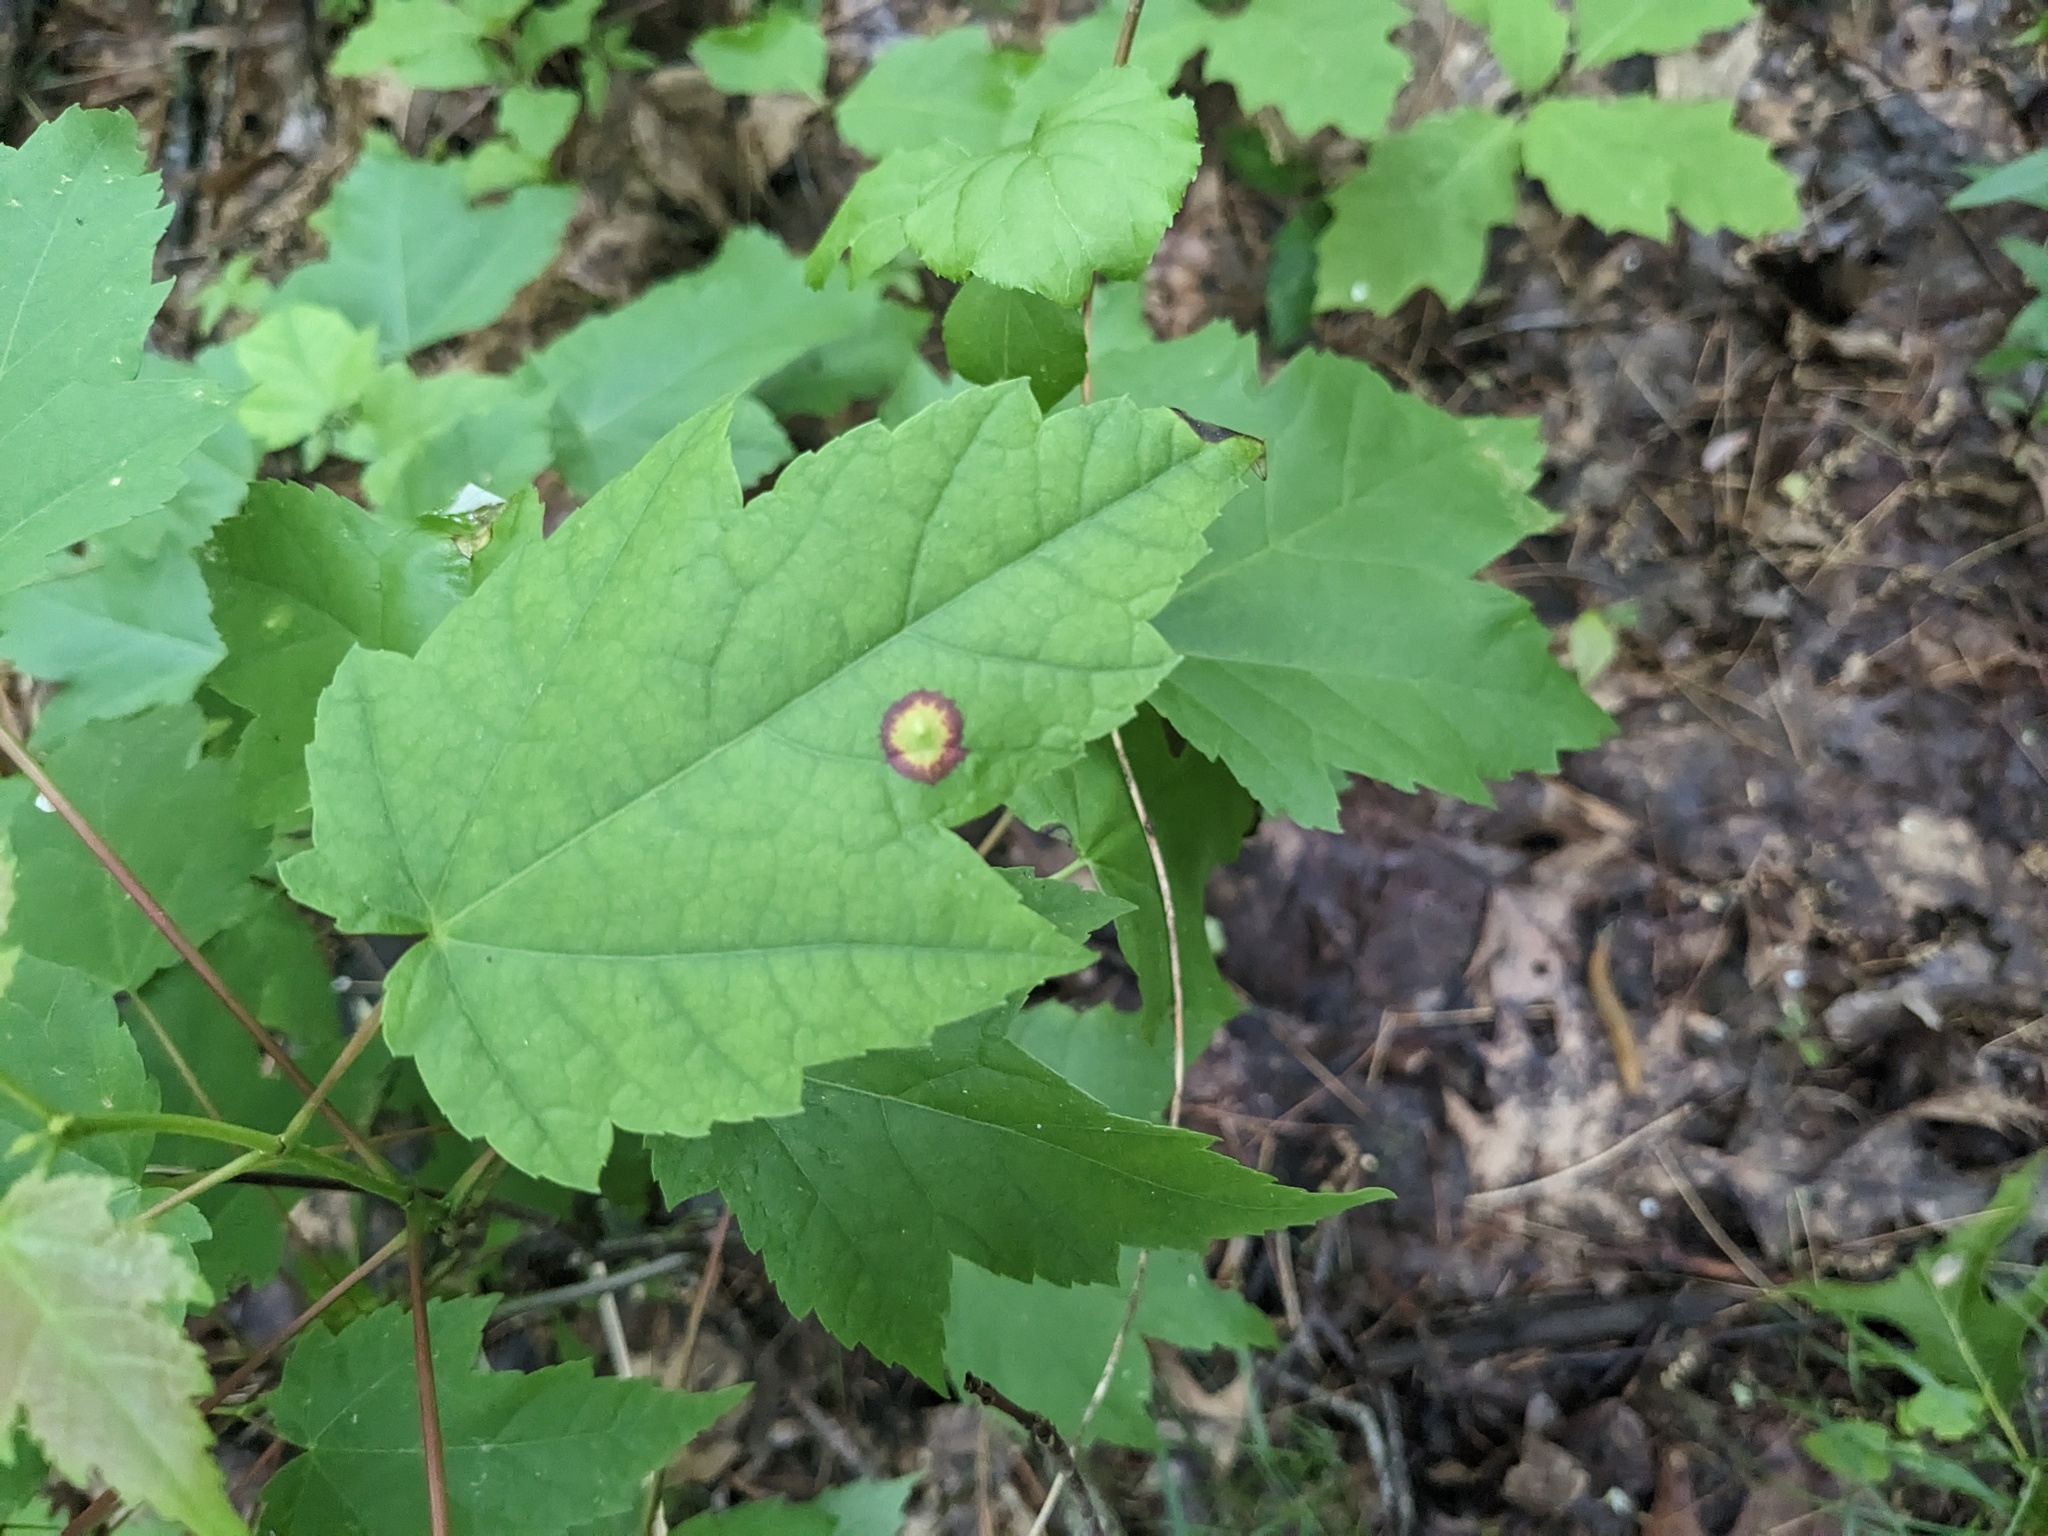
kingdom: Animalia
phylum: Arthropoda
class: Insecta
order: Diptera
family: Cecidomyiidae
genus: Acericecis
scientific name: Acericecis ocellaris
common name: Ocellate gall midge
